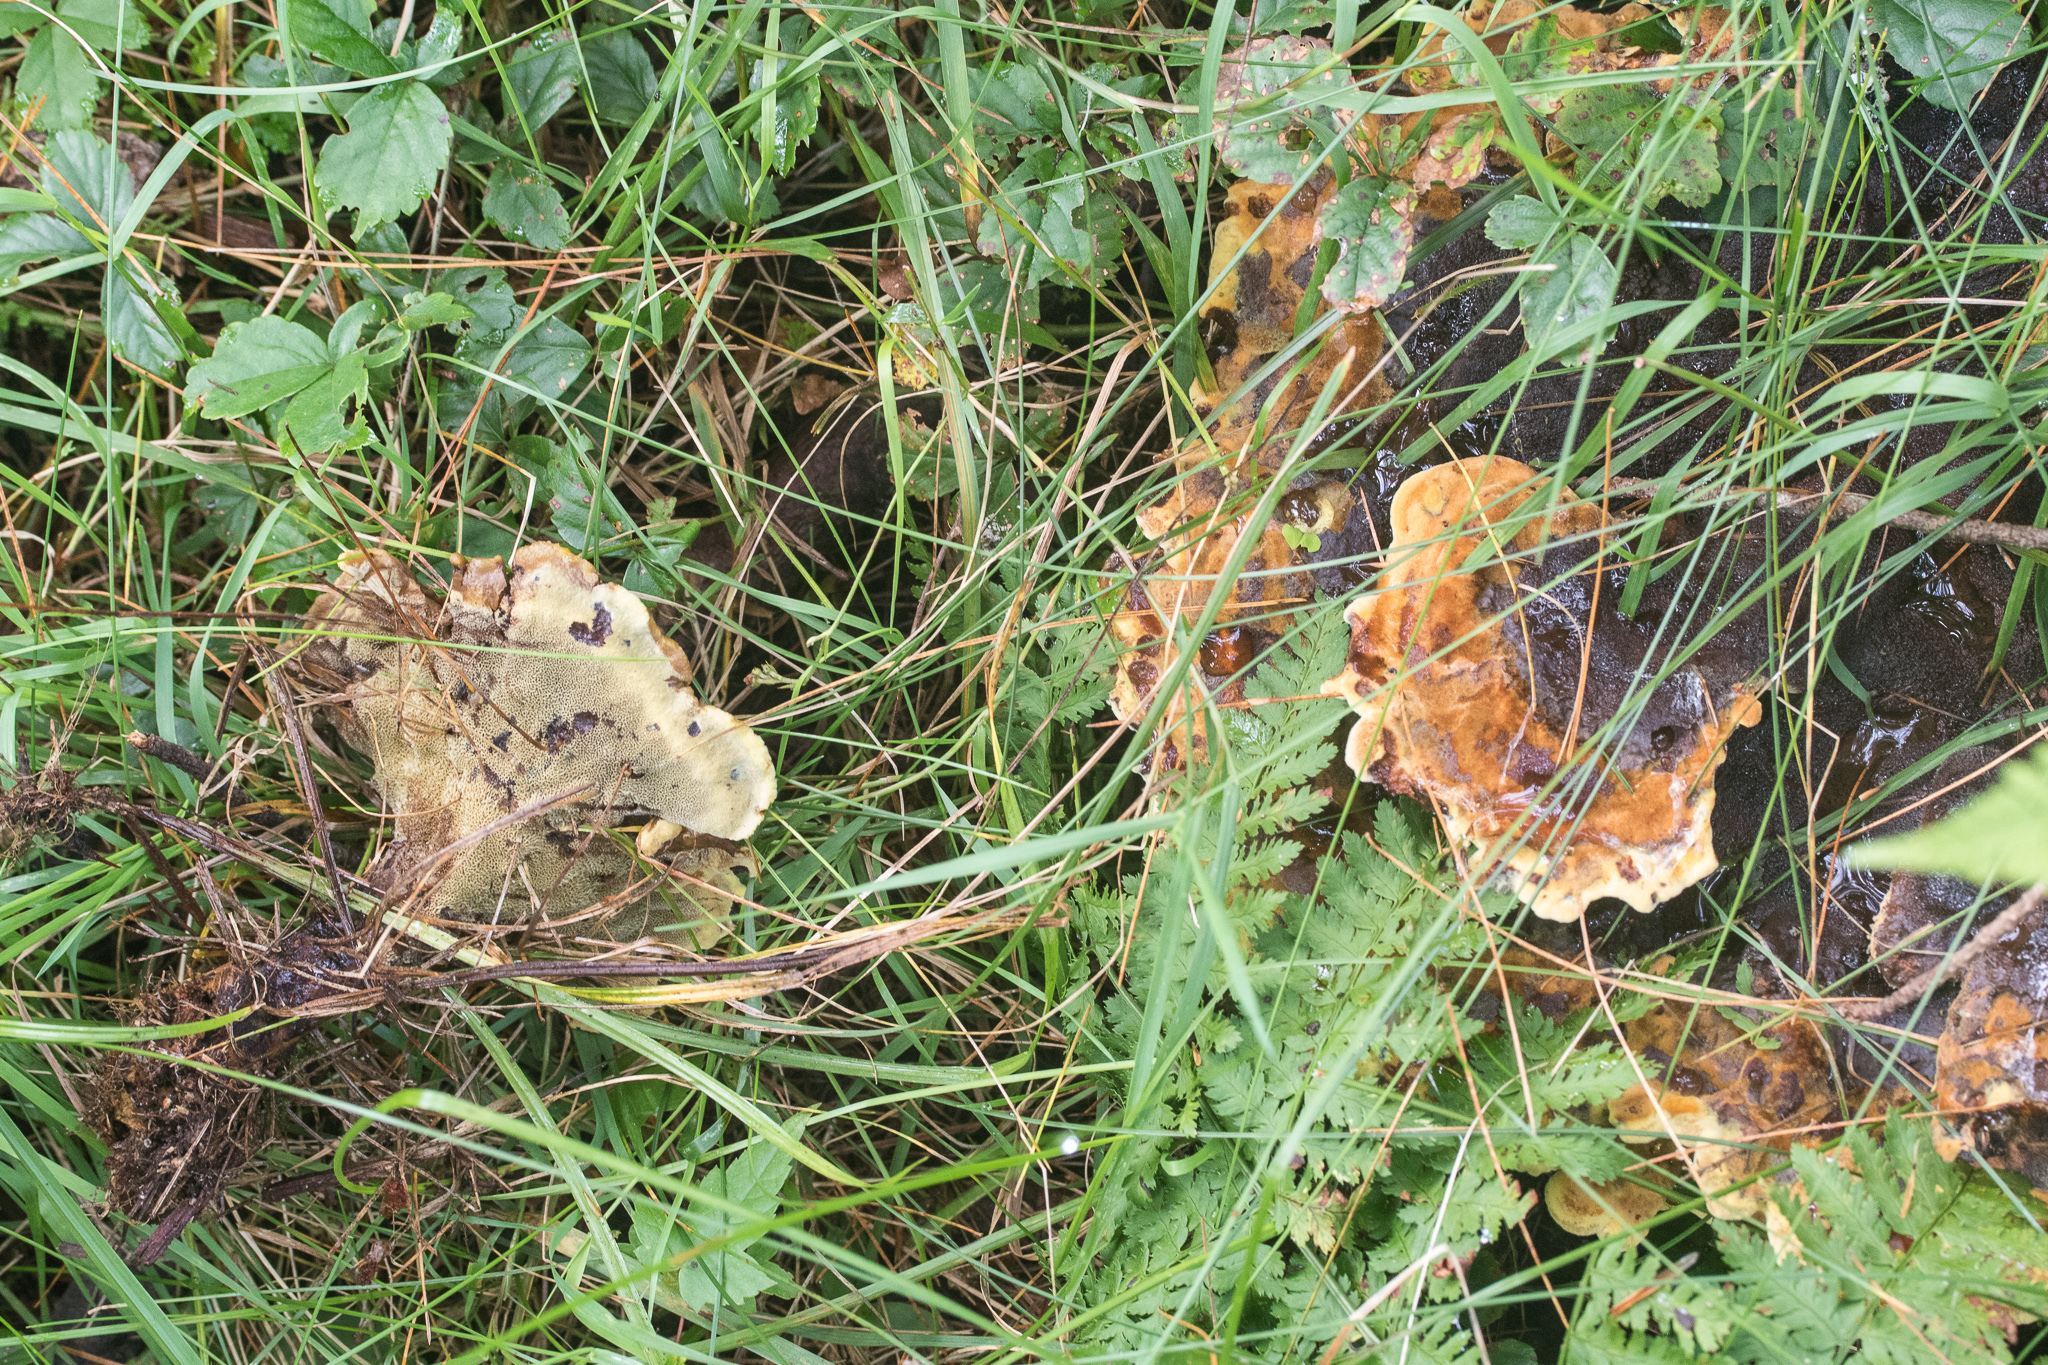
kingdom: Fungi
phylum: Basidiomycota
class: Agaricomycetes
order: Polyporales
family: Laetiporaceae
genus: Phaeolus
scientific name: Phaeolus schweinitzii
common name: Dyer's mazegill
